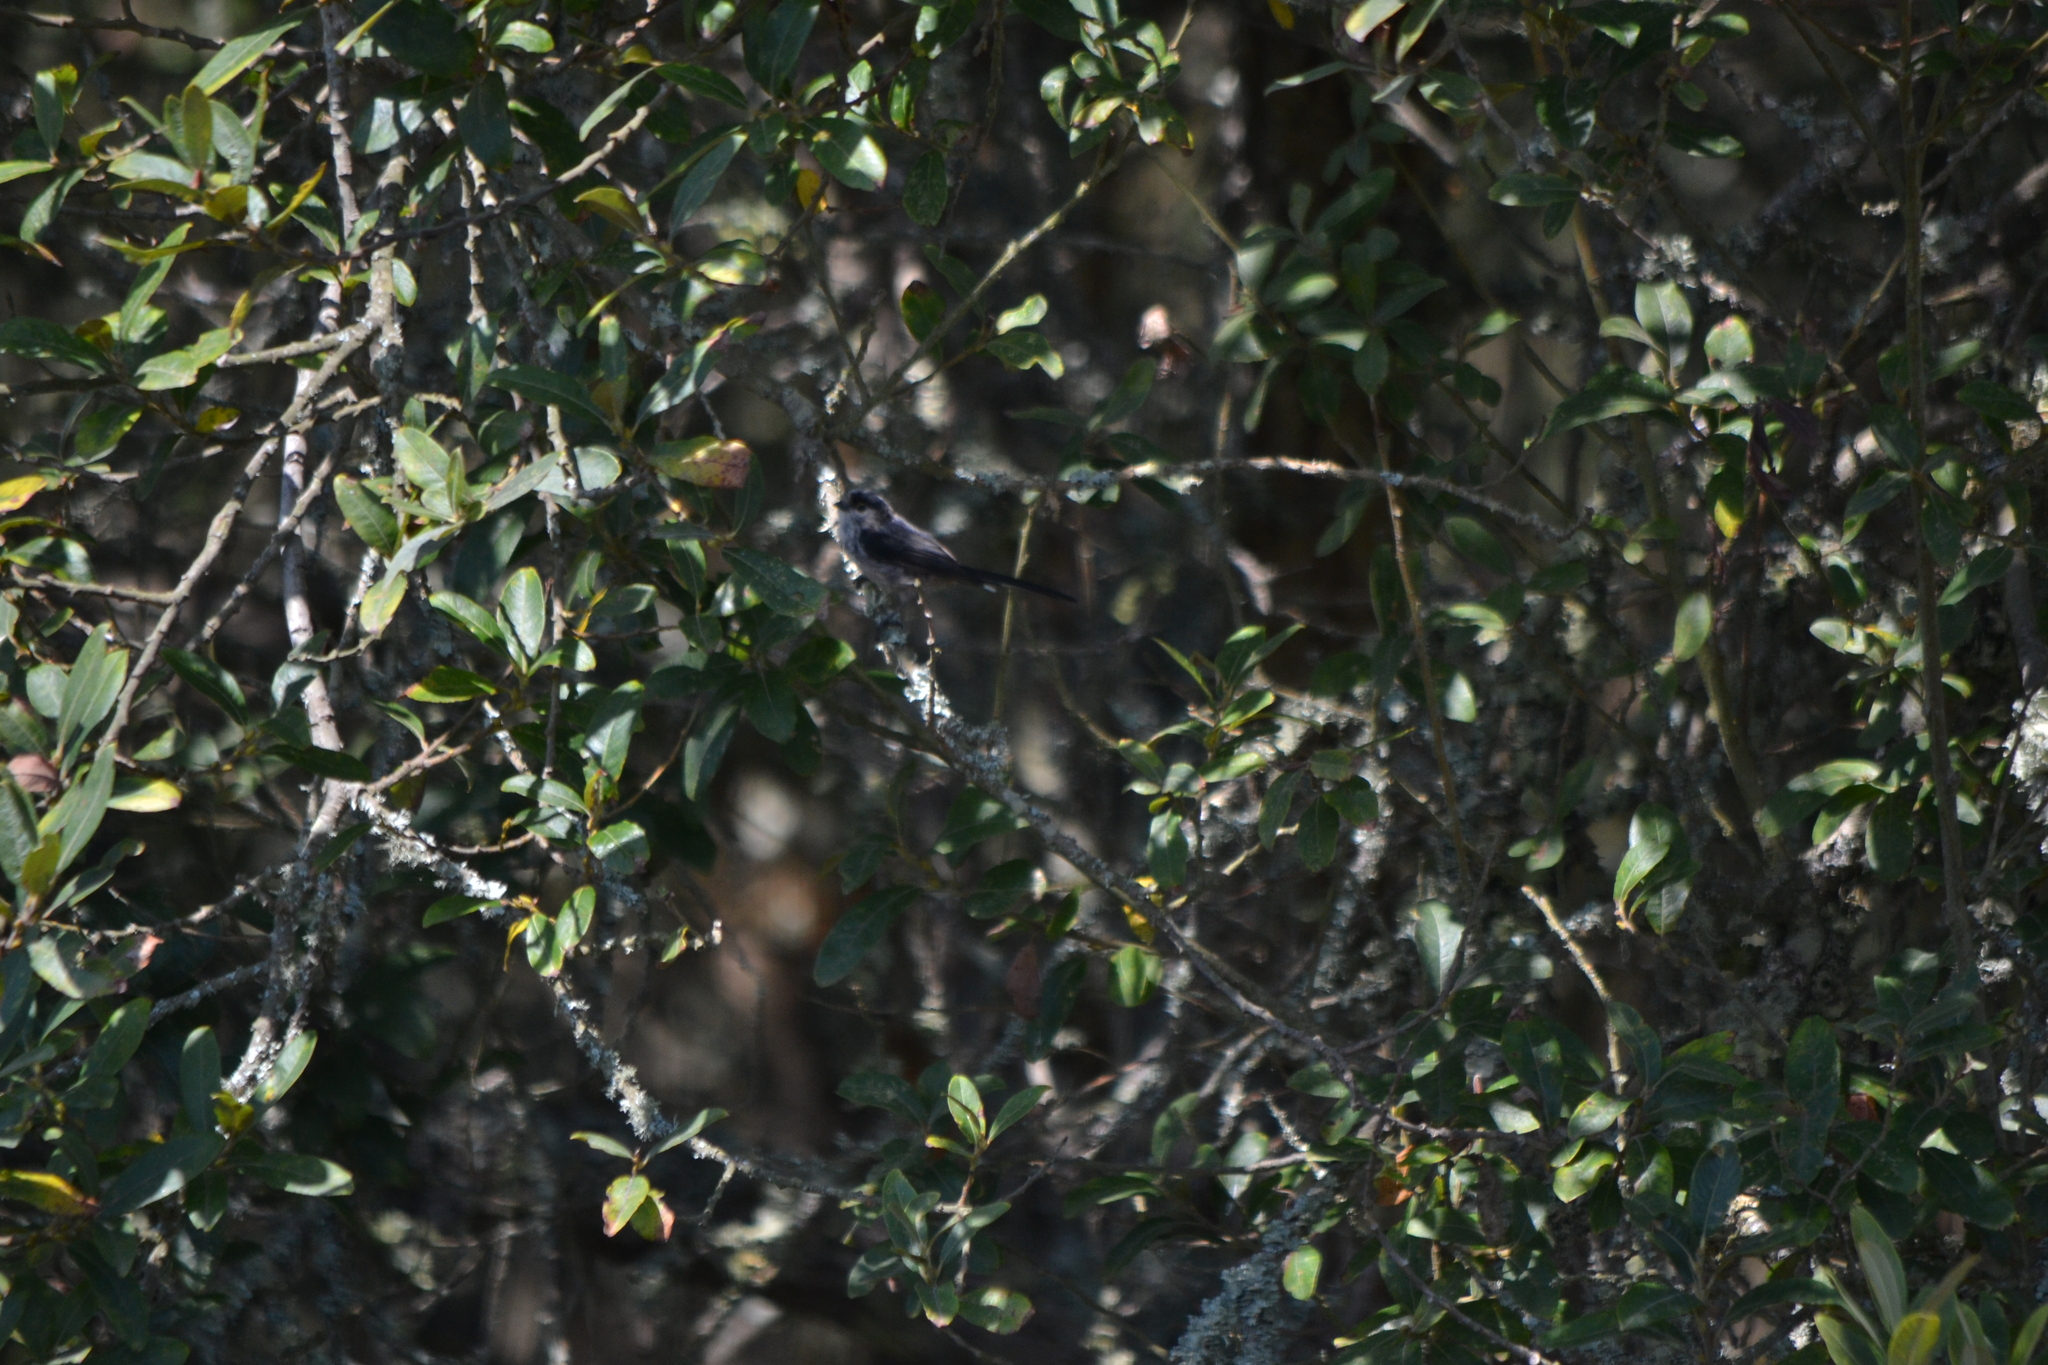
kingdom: Animalia
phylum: Chordata
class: Aves
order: Passeriformes
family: Aegithalidae
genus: Aegithalos
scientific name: Aegithalos caudatus
